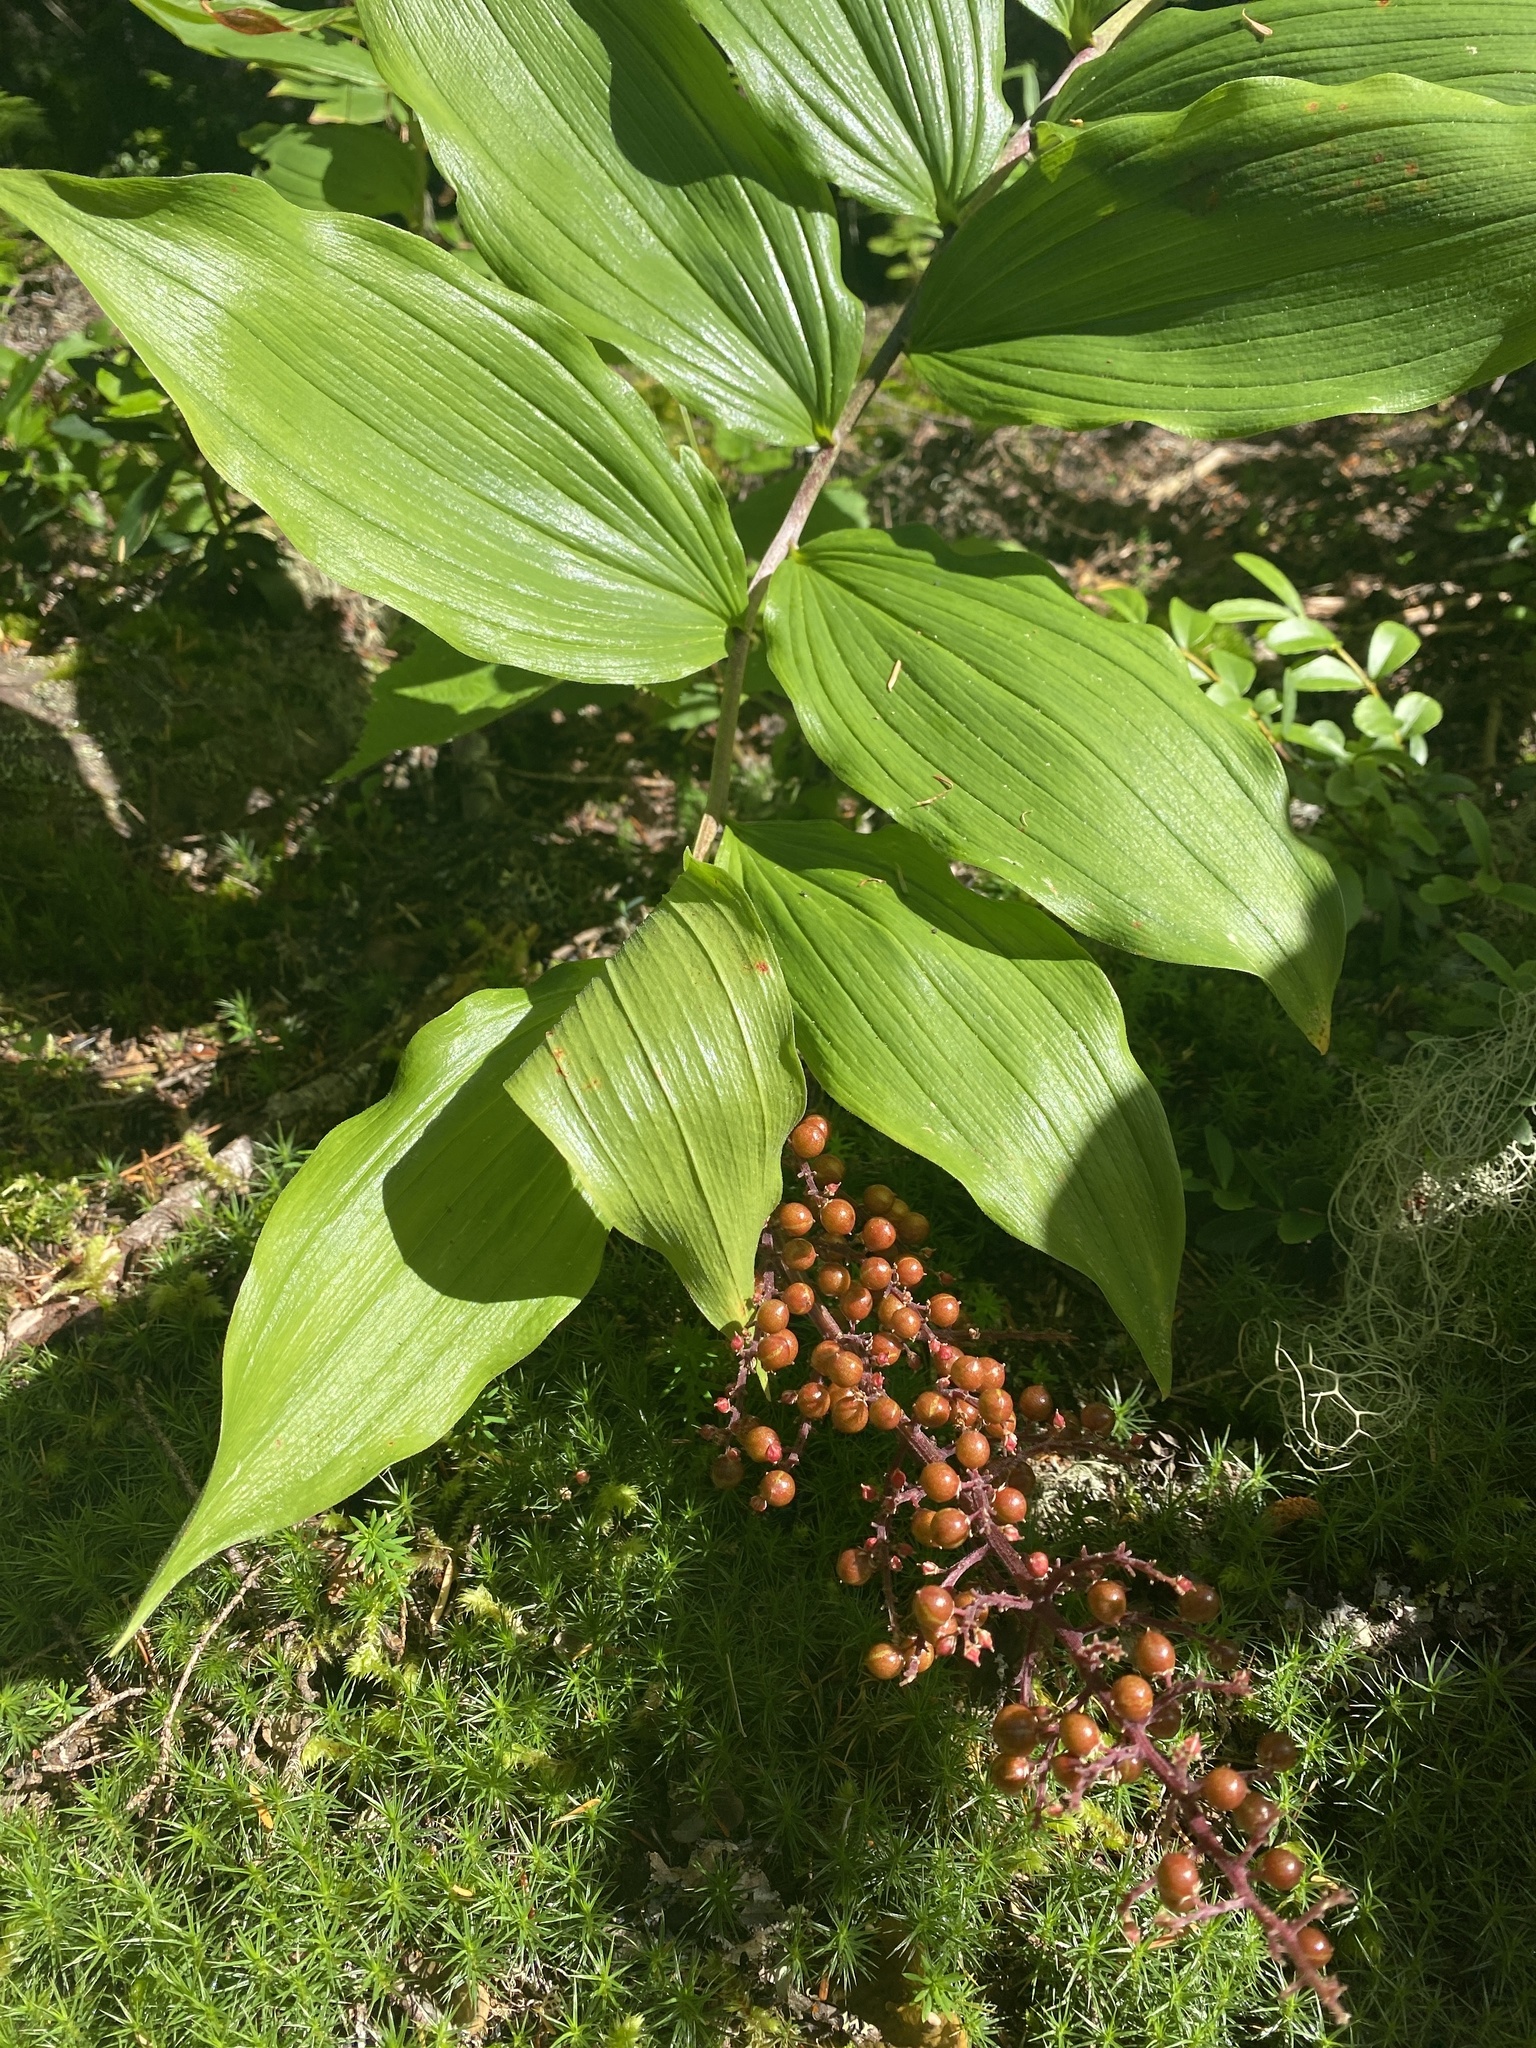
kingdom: Plantae
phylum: Tracheophyta
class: Liliopsida
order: Asparagales
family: Asparagaceae
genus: Maianthemum
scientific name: Maianthemum racemosum
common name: False spikenard
